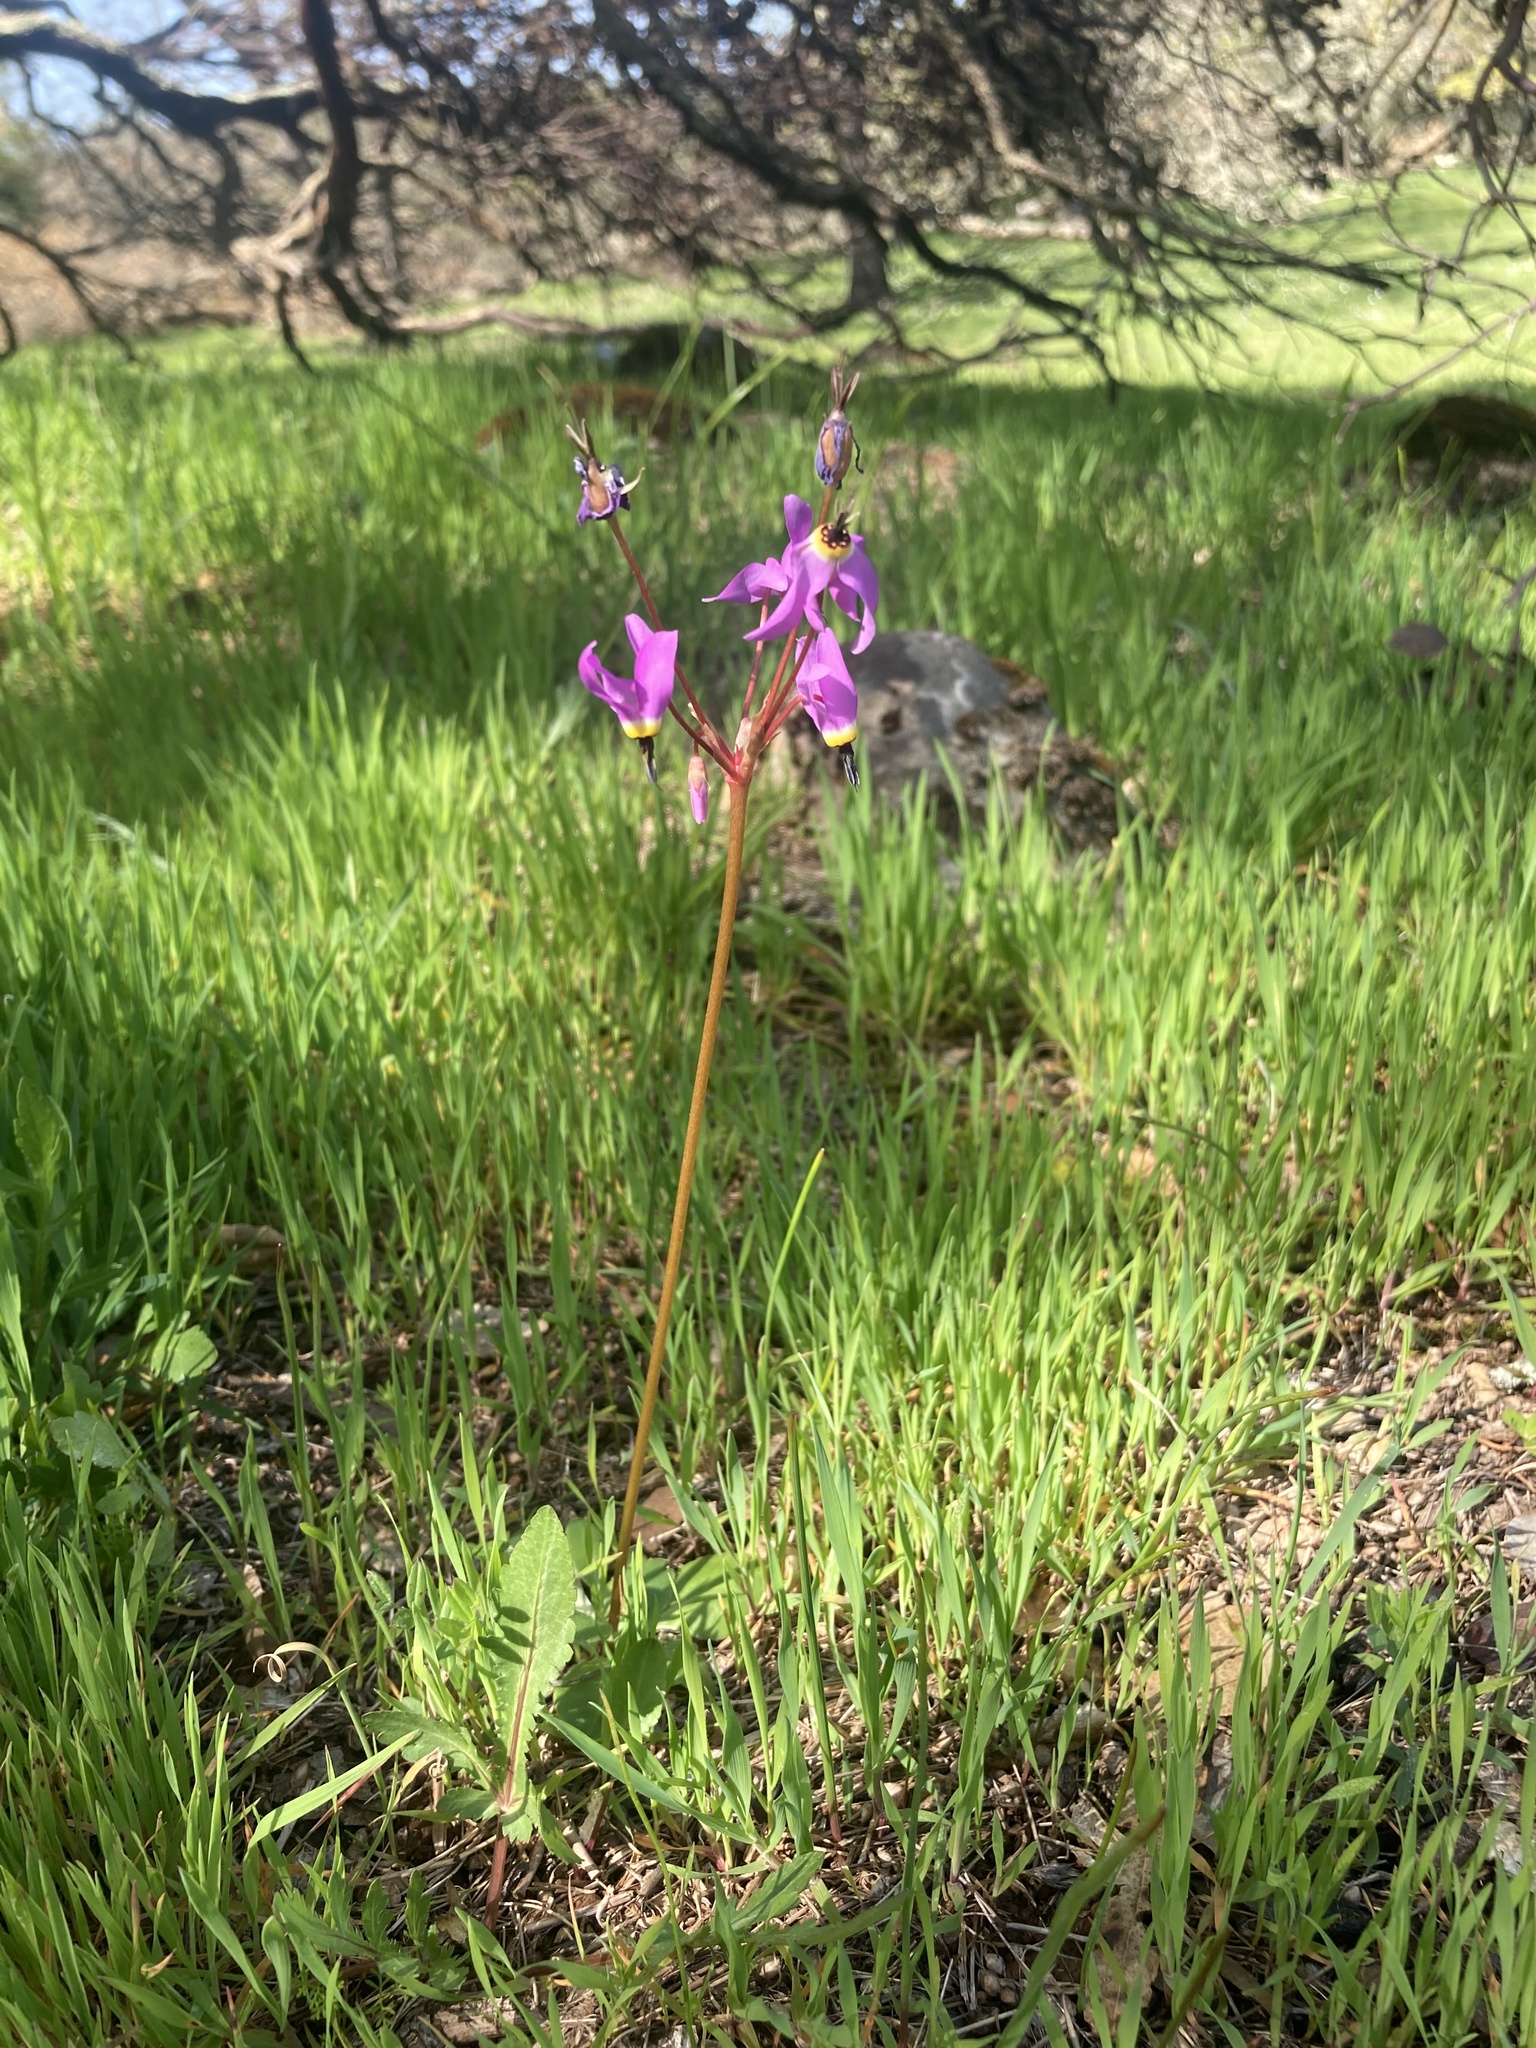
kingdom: Plantae
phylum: Tracheophyta
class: Magnoliopsida
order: Ericales
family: Primulaceae
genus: Dodecatheon
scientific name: Dodecatheon hendersonii
